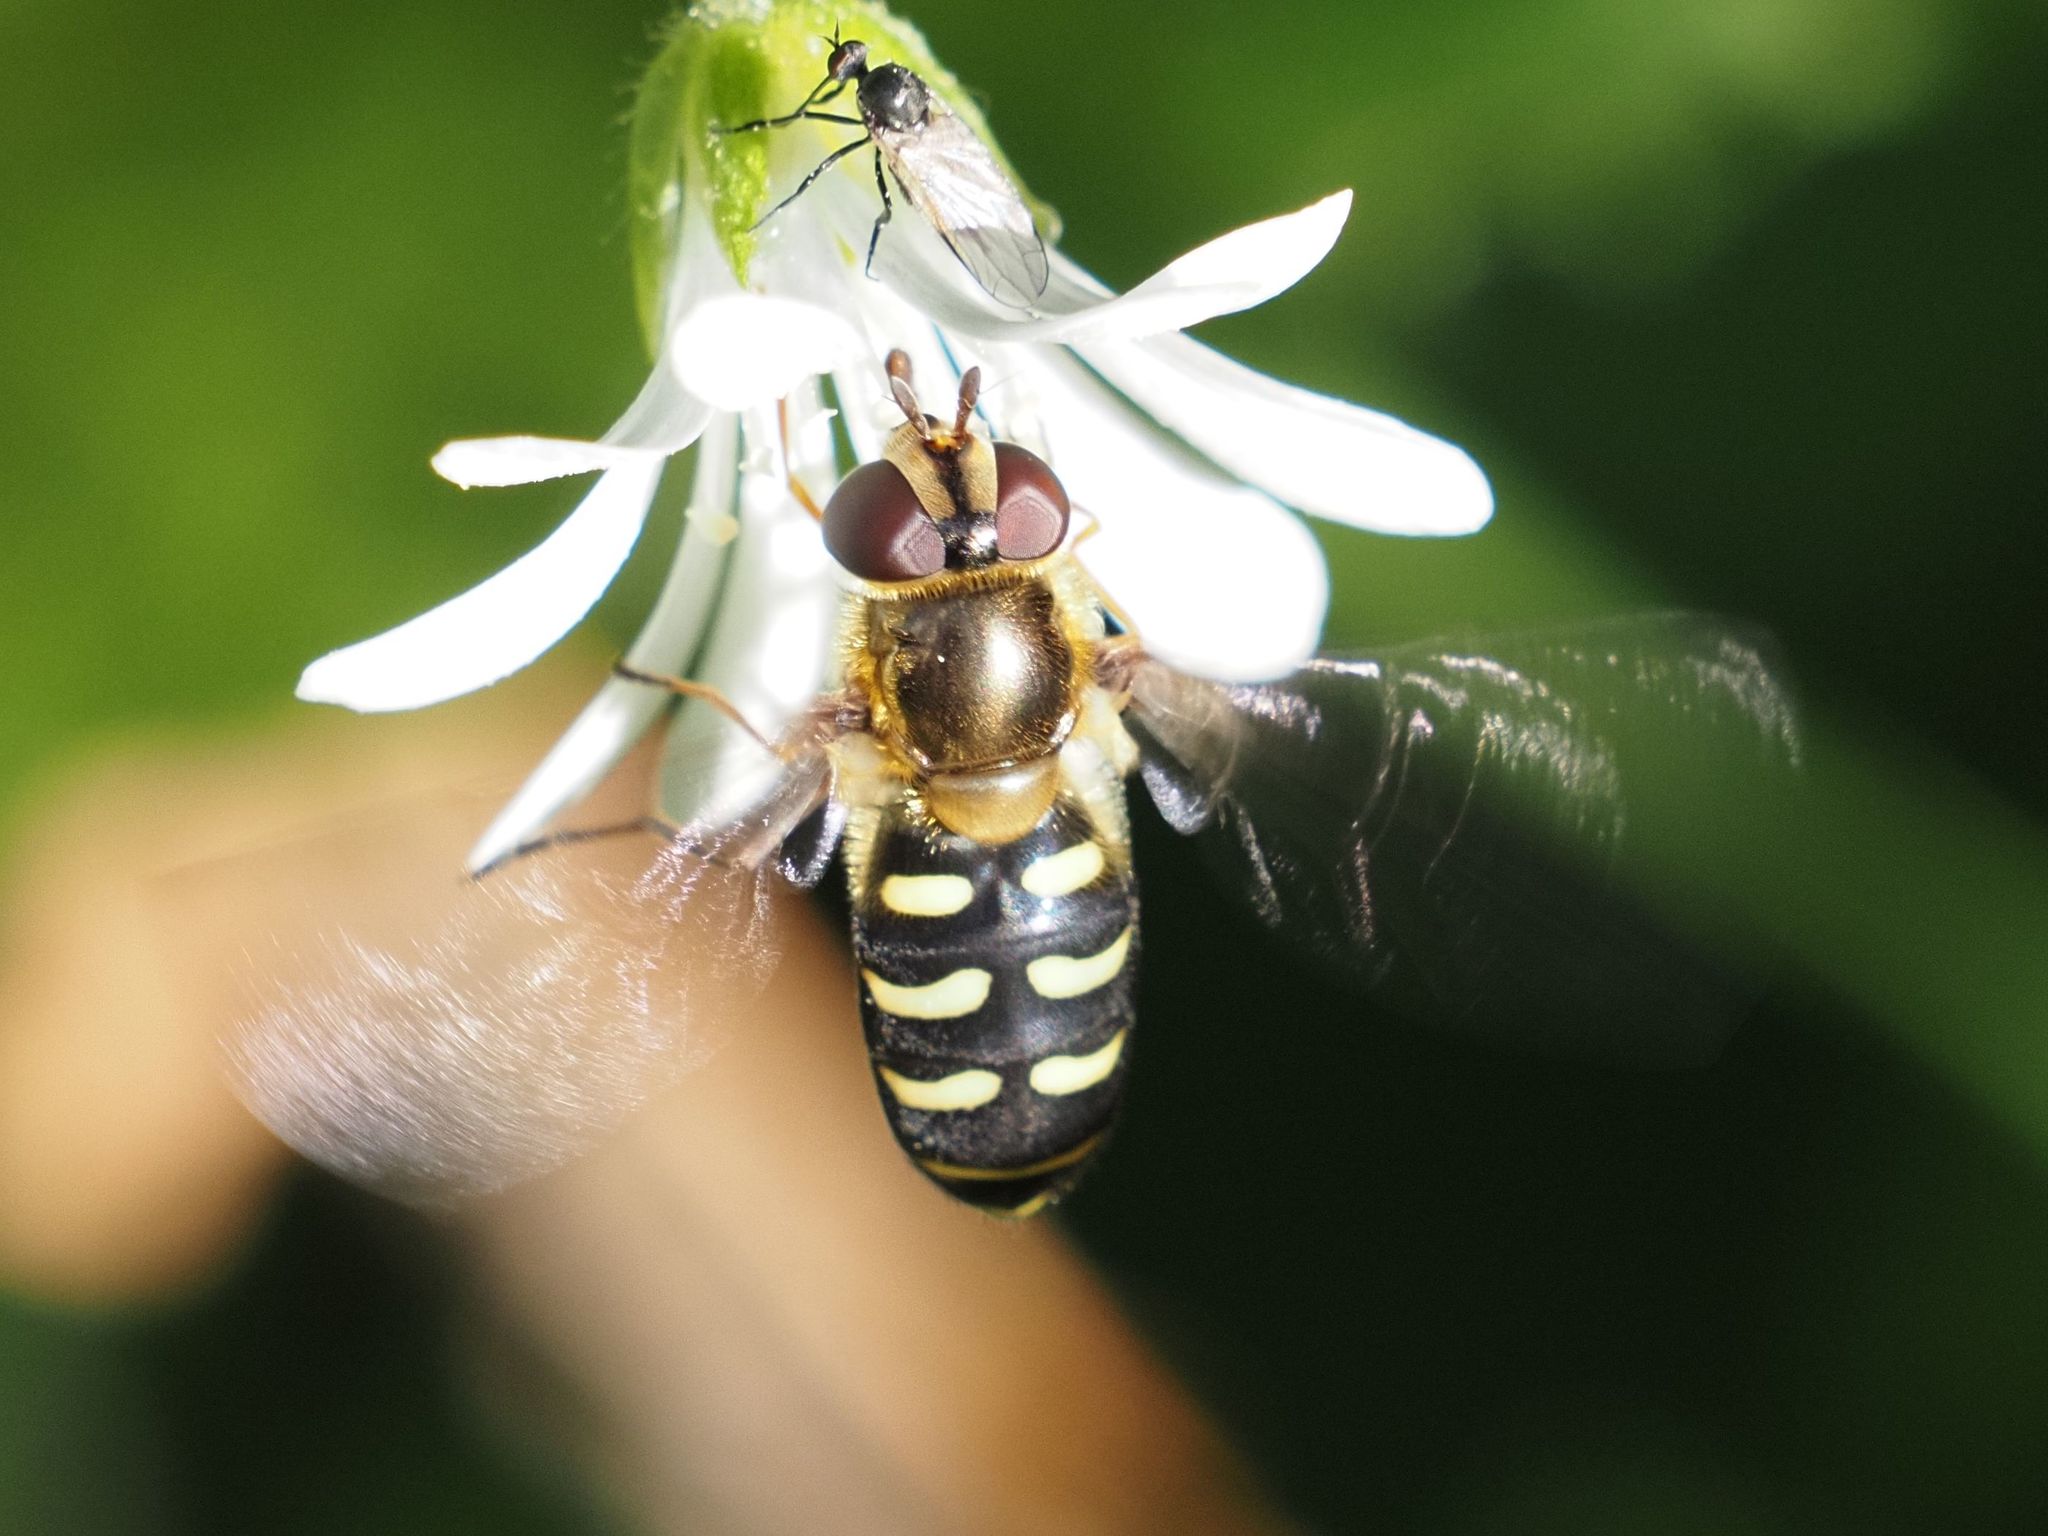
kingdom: Animalia
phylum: Arthropoda
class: Insecta
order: Diptera
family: Syrphidae
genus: Lapposyrphus
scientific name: Lapposyrphus lapponicus
